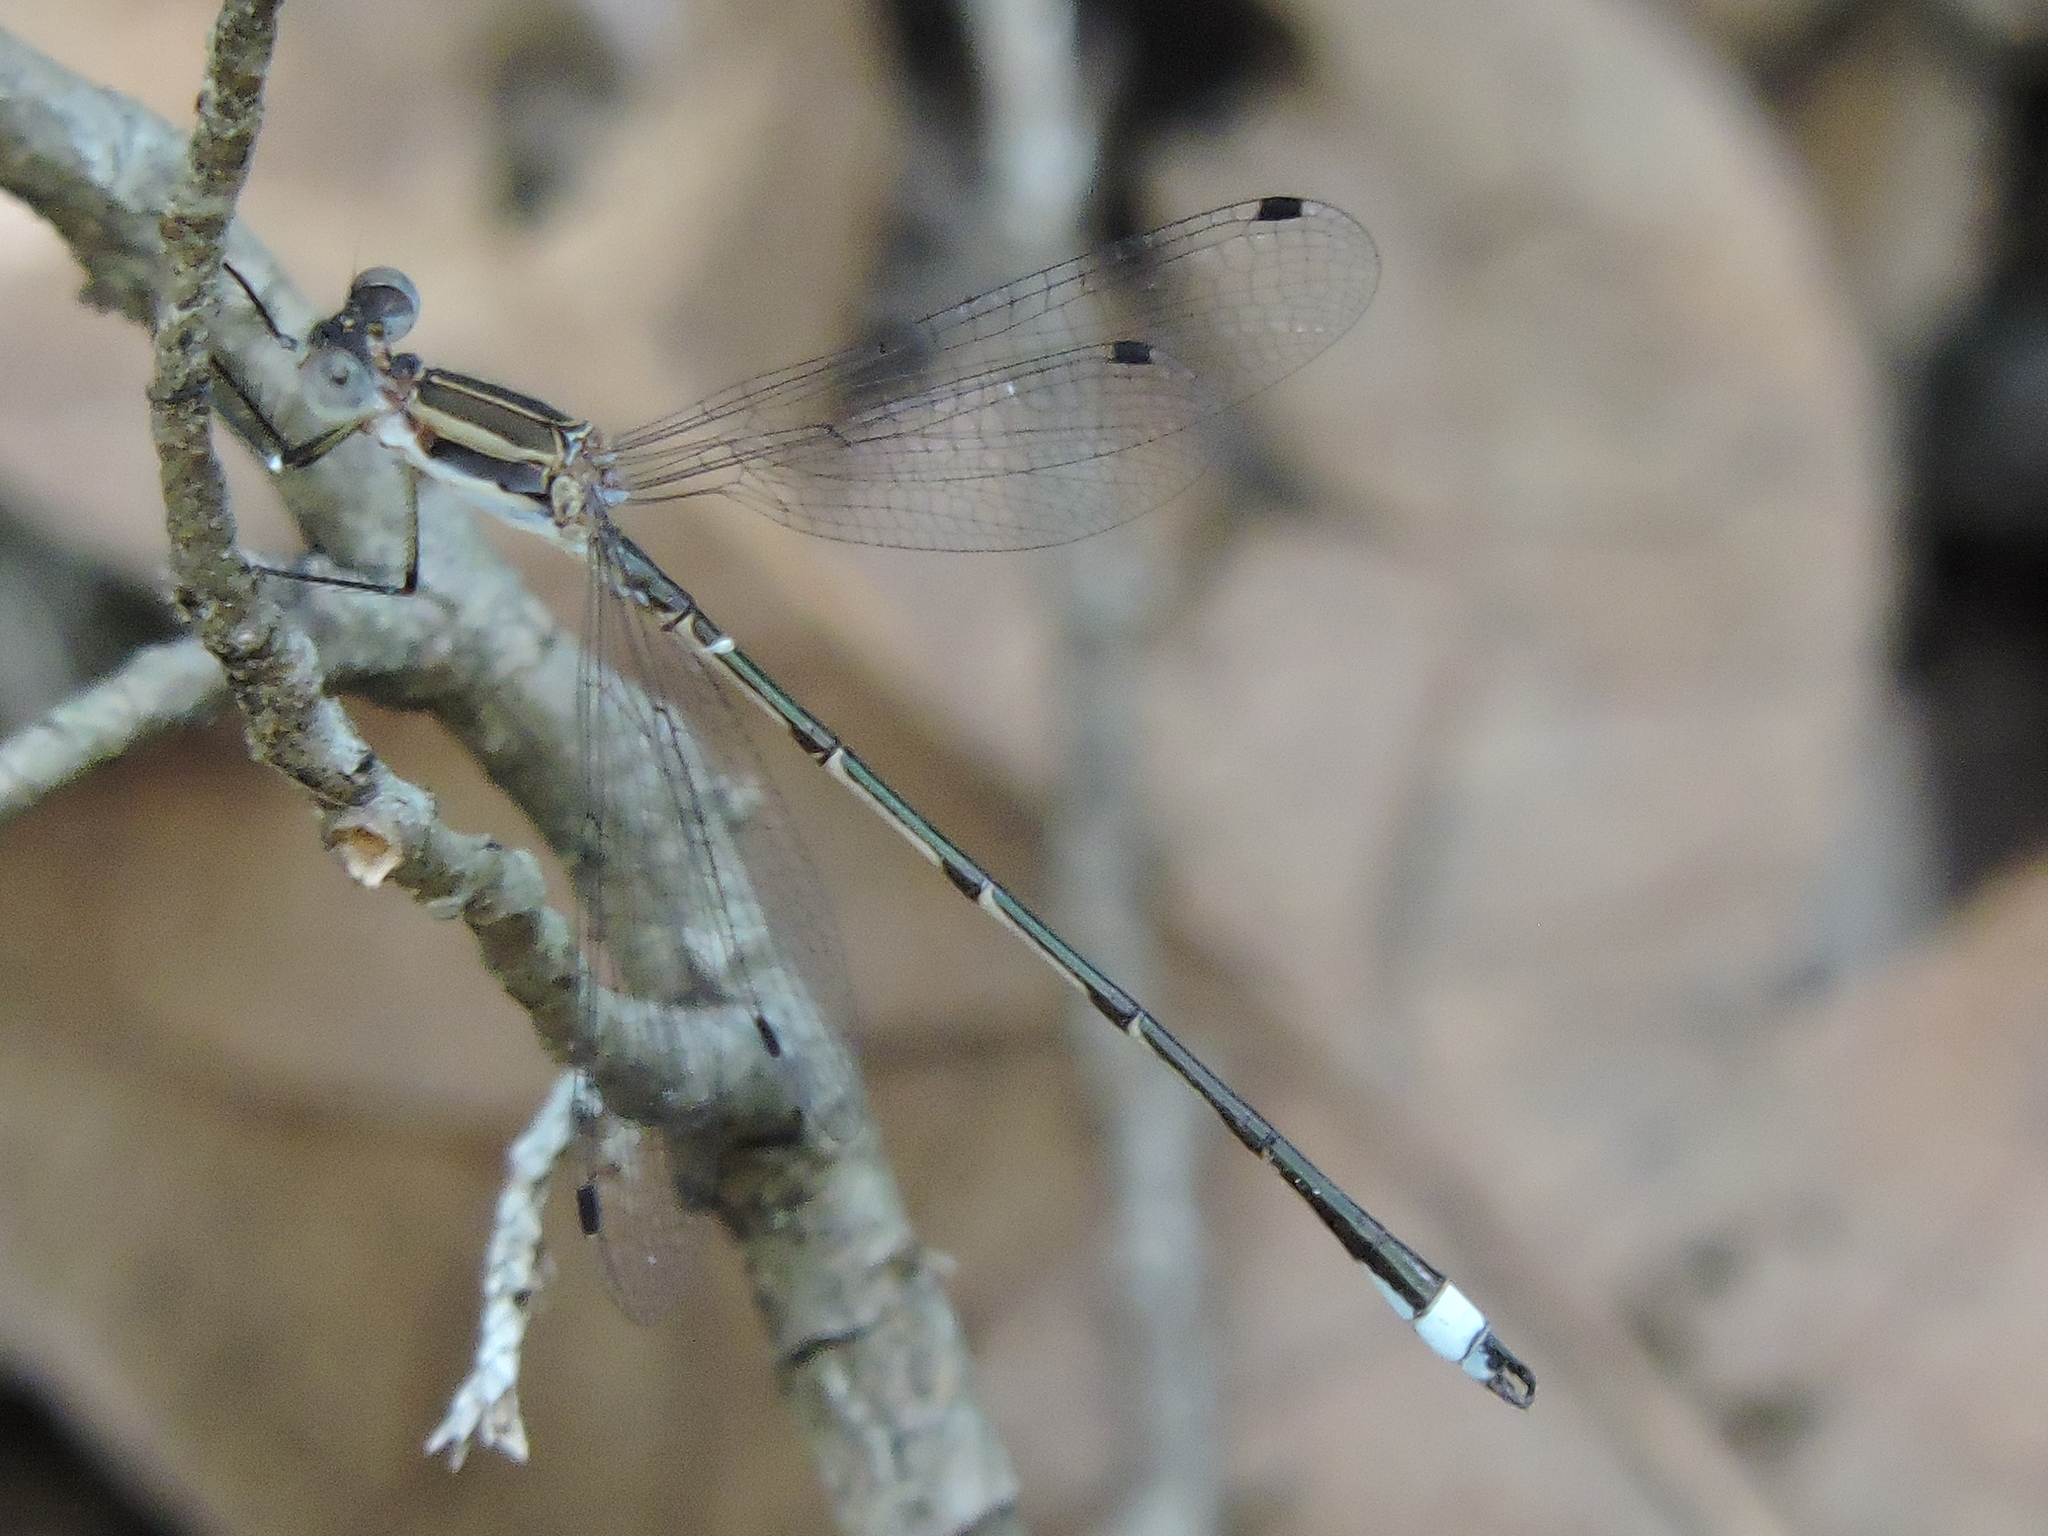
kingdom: Animalia
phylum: Arthropoda
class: Insecta
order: Odonata
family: Lestidae
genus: Lestes
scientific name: Lestes australis
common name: Southern spreadwing
